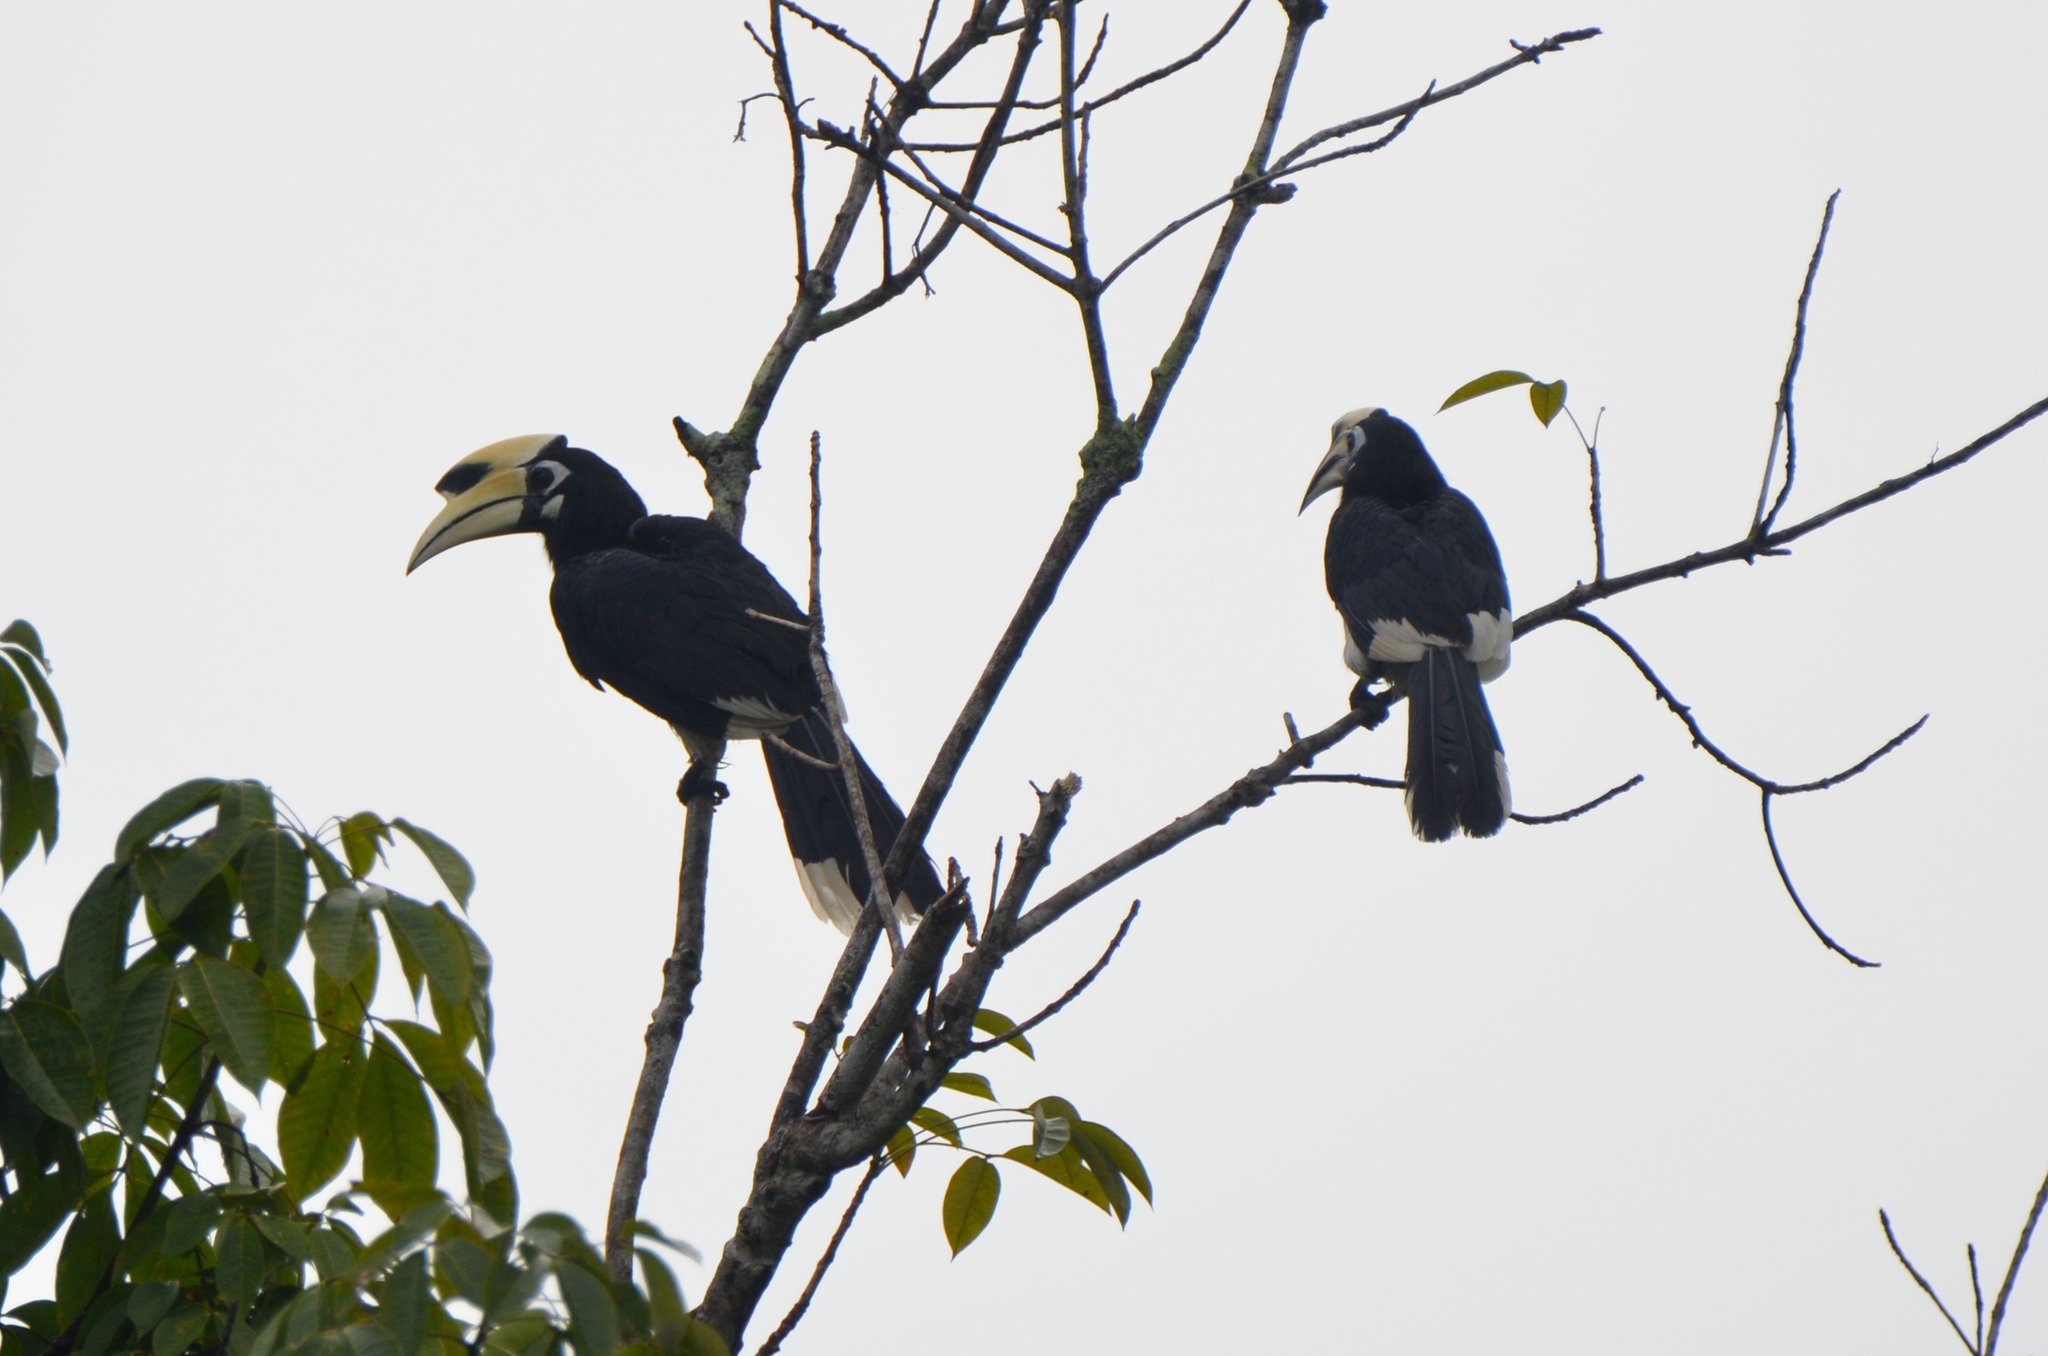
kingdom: Animalia
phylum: Chordata
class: Aves
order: Bucerotiformes
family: Bucerotidae
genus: Anthracoceros
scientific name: Anthracoceros albirostris
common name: Oriental pied-hornbill
